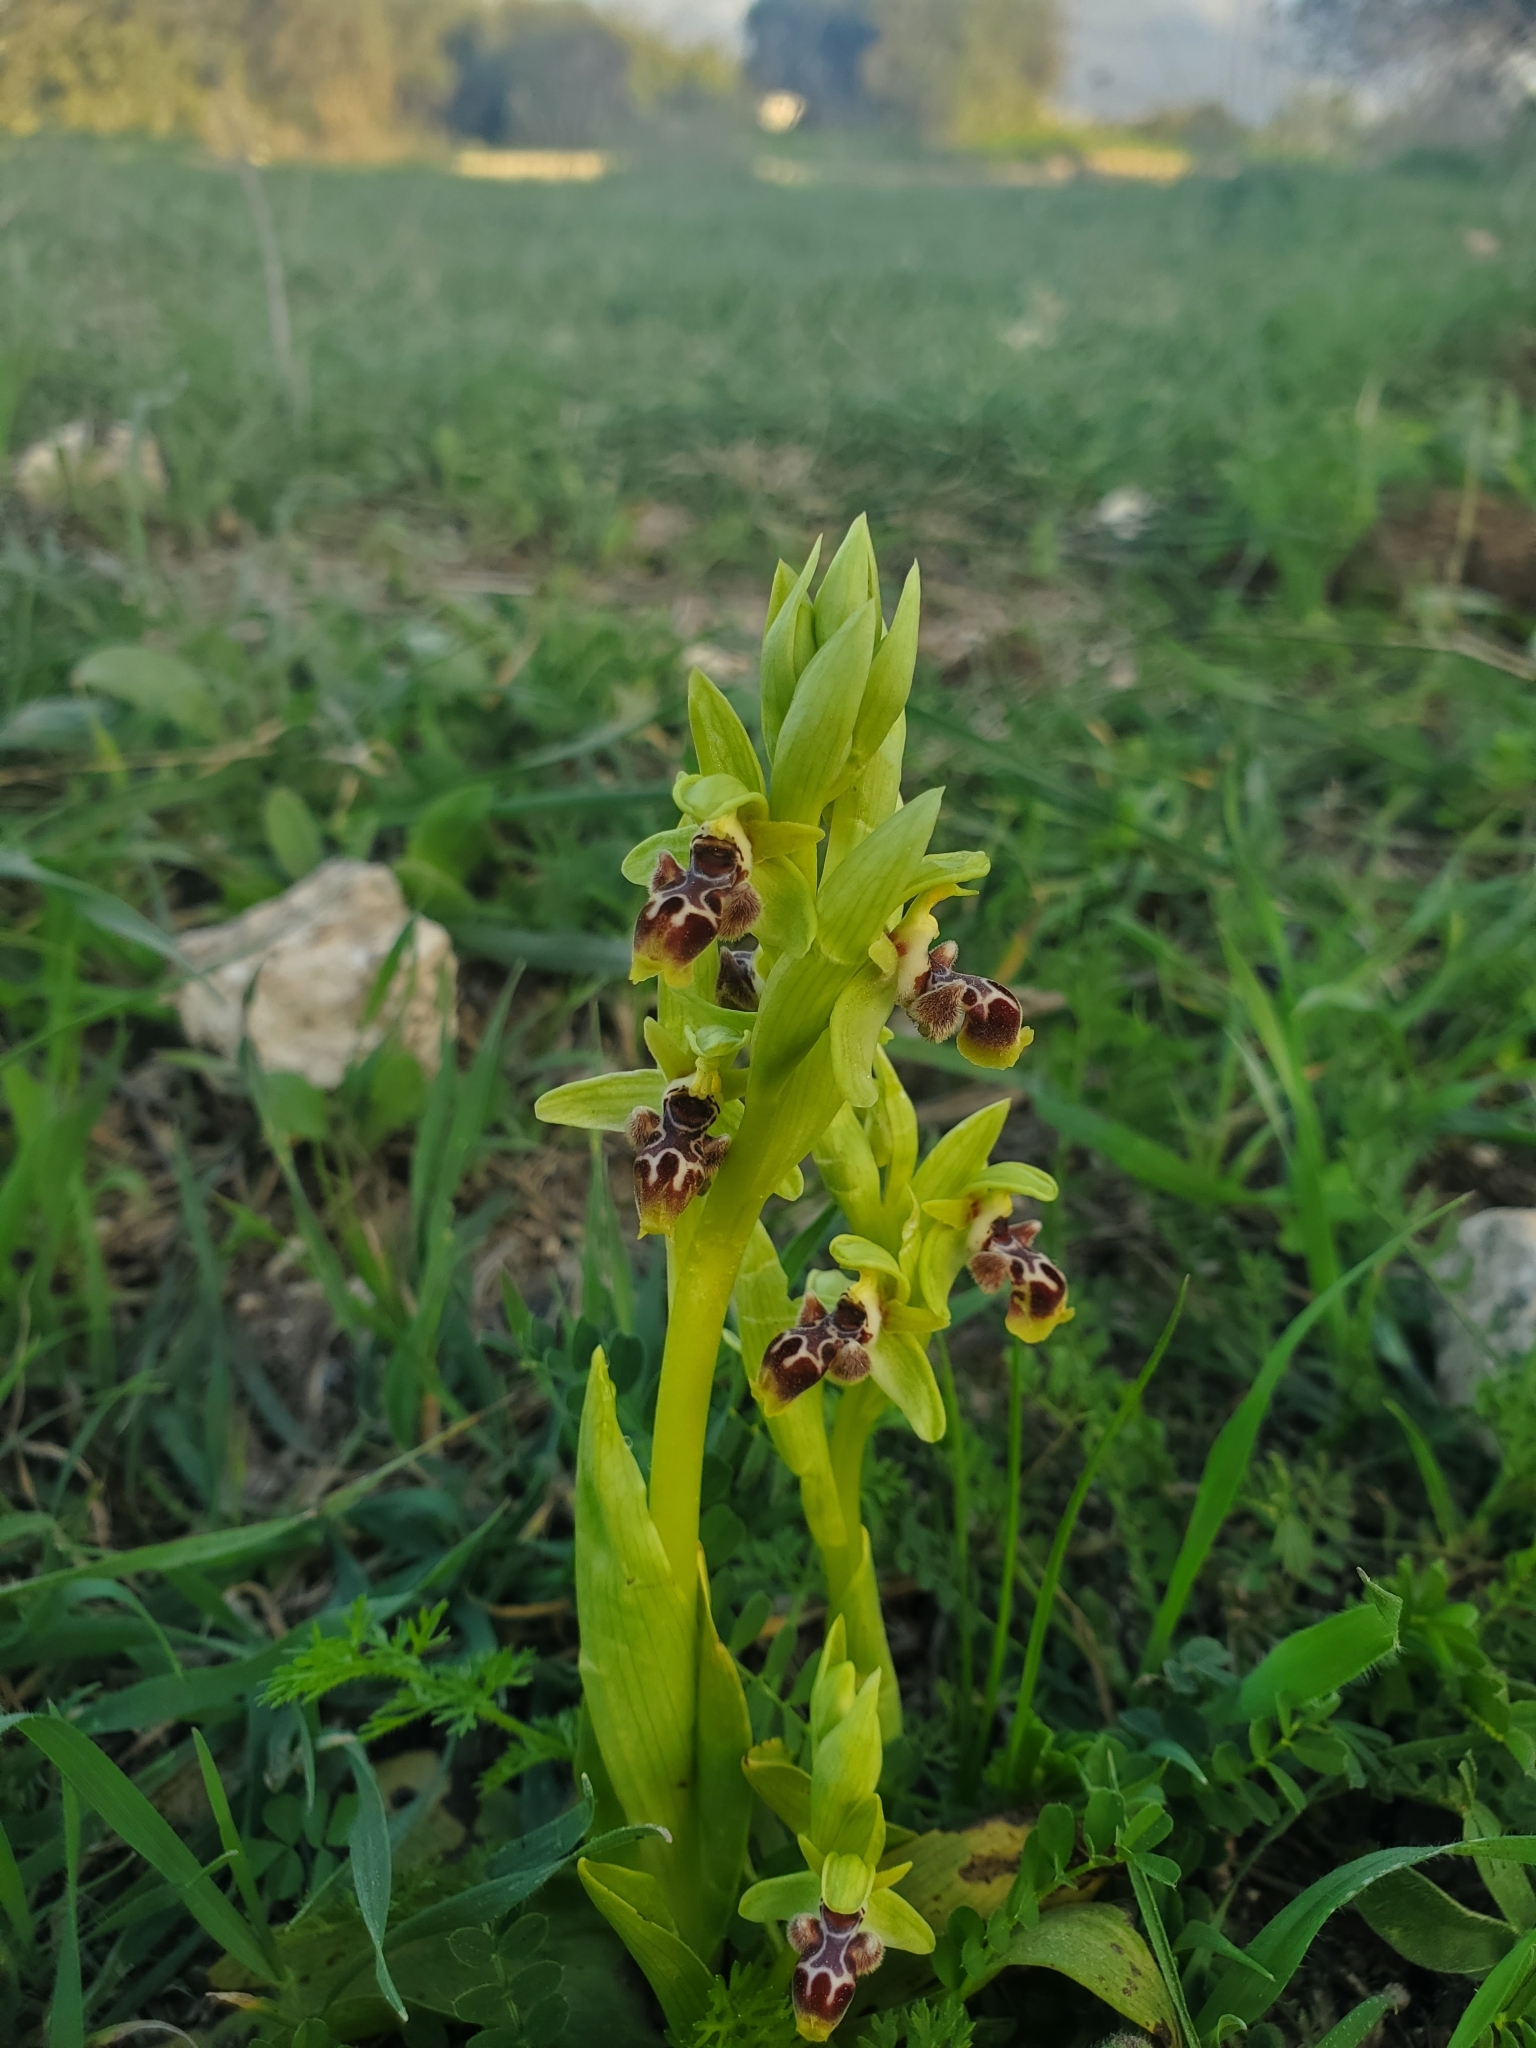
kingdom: Plantae
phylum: Tracheophyta
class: Liliopsida
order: Asparagales
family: Orchidaceae
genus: Ophrys
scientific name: Ophrys umbilicata
